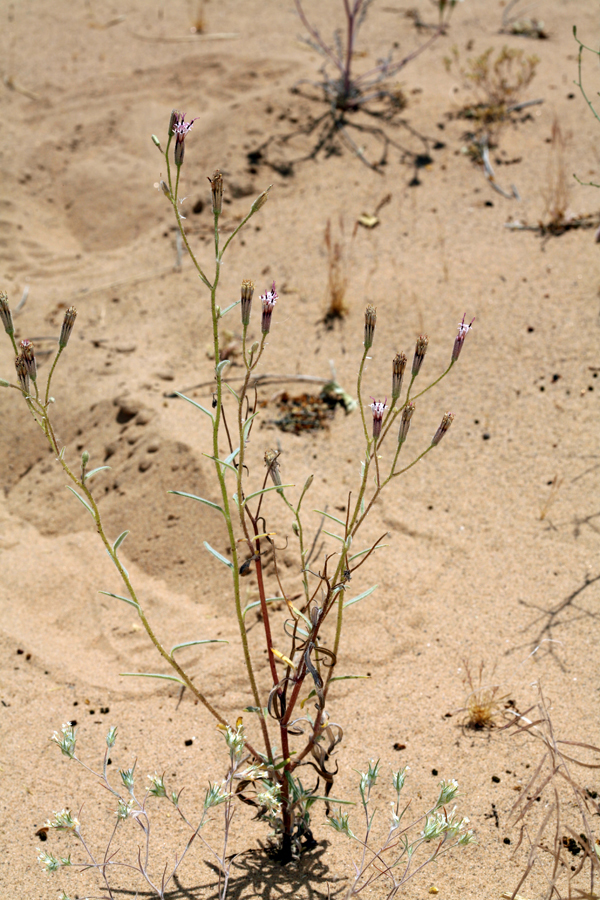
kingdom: Plantae
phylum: Tracheophyta
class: Magnoliopsida
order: Asterales
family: Asteraceae
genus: Palafoxia
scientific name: Palafoxia arida
